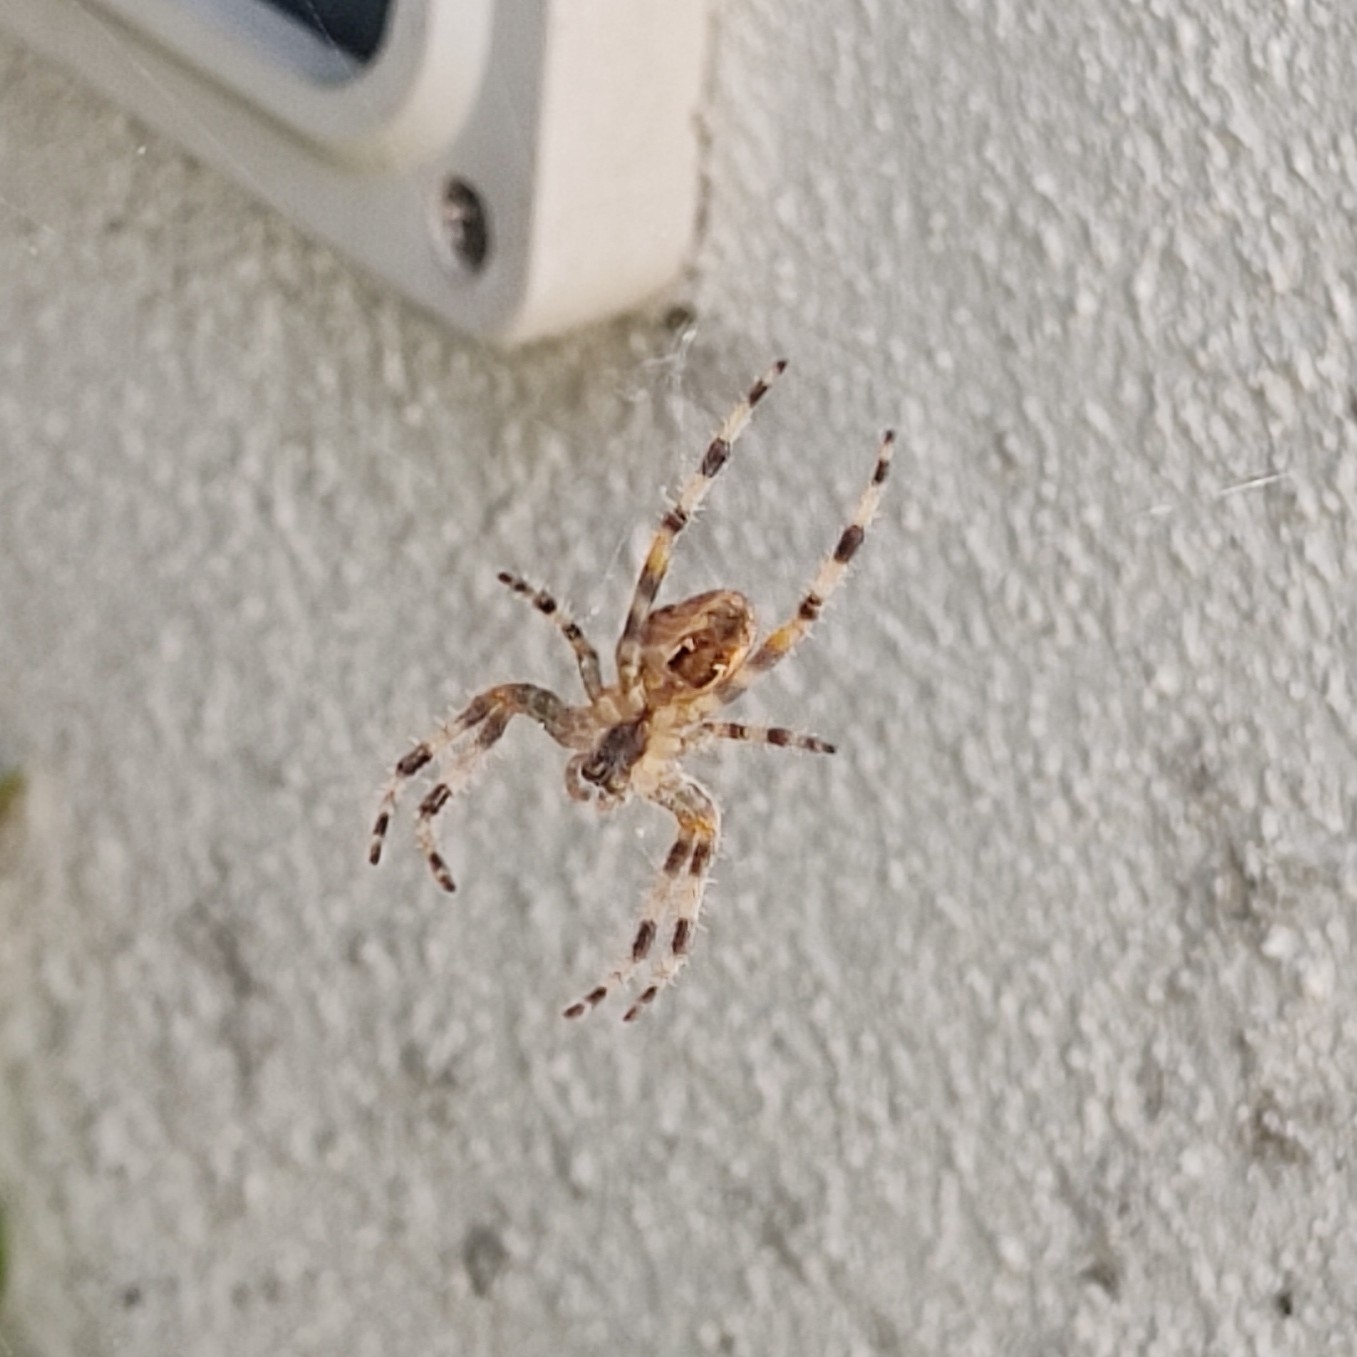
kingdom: Animalia
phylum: Arthropoda
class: Arachnida
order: Araneae
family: Araneidae
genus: Araneus
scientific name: Araneus diadematus
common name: Cross orbweaver
